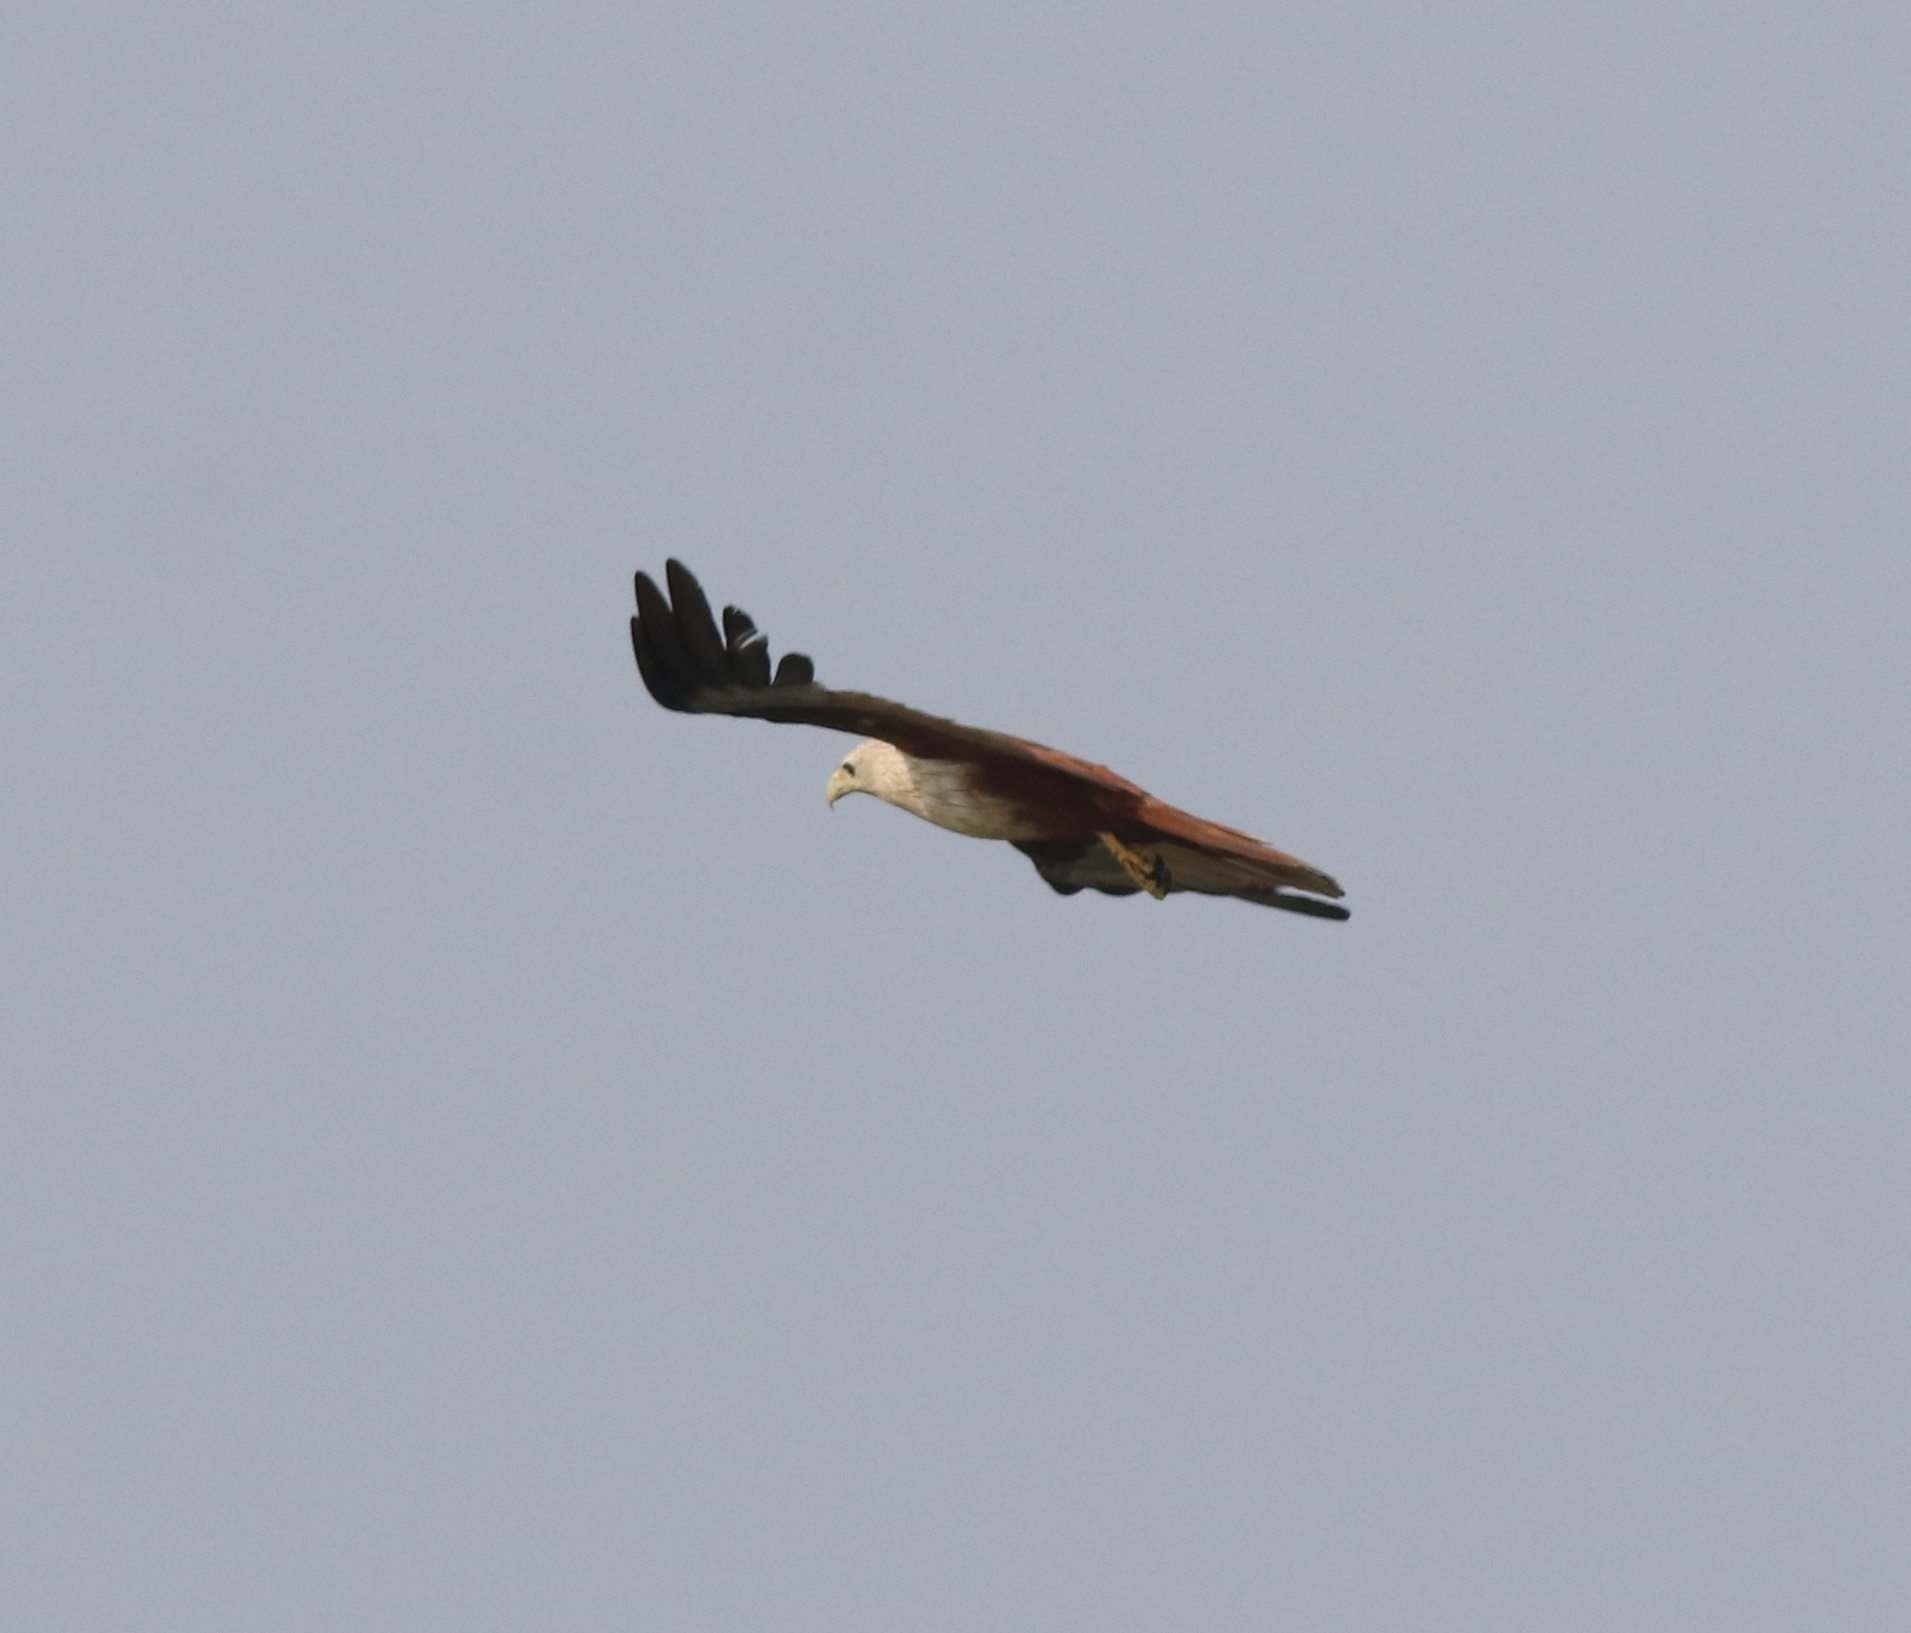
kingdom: Animalia
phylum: Chordata
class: Aves
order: Accipitriformes
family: Accipitridae
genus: Haliastur
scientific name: Haliastur indus
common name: Brahminy kite
